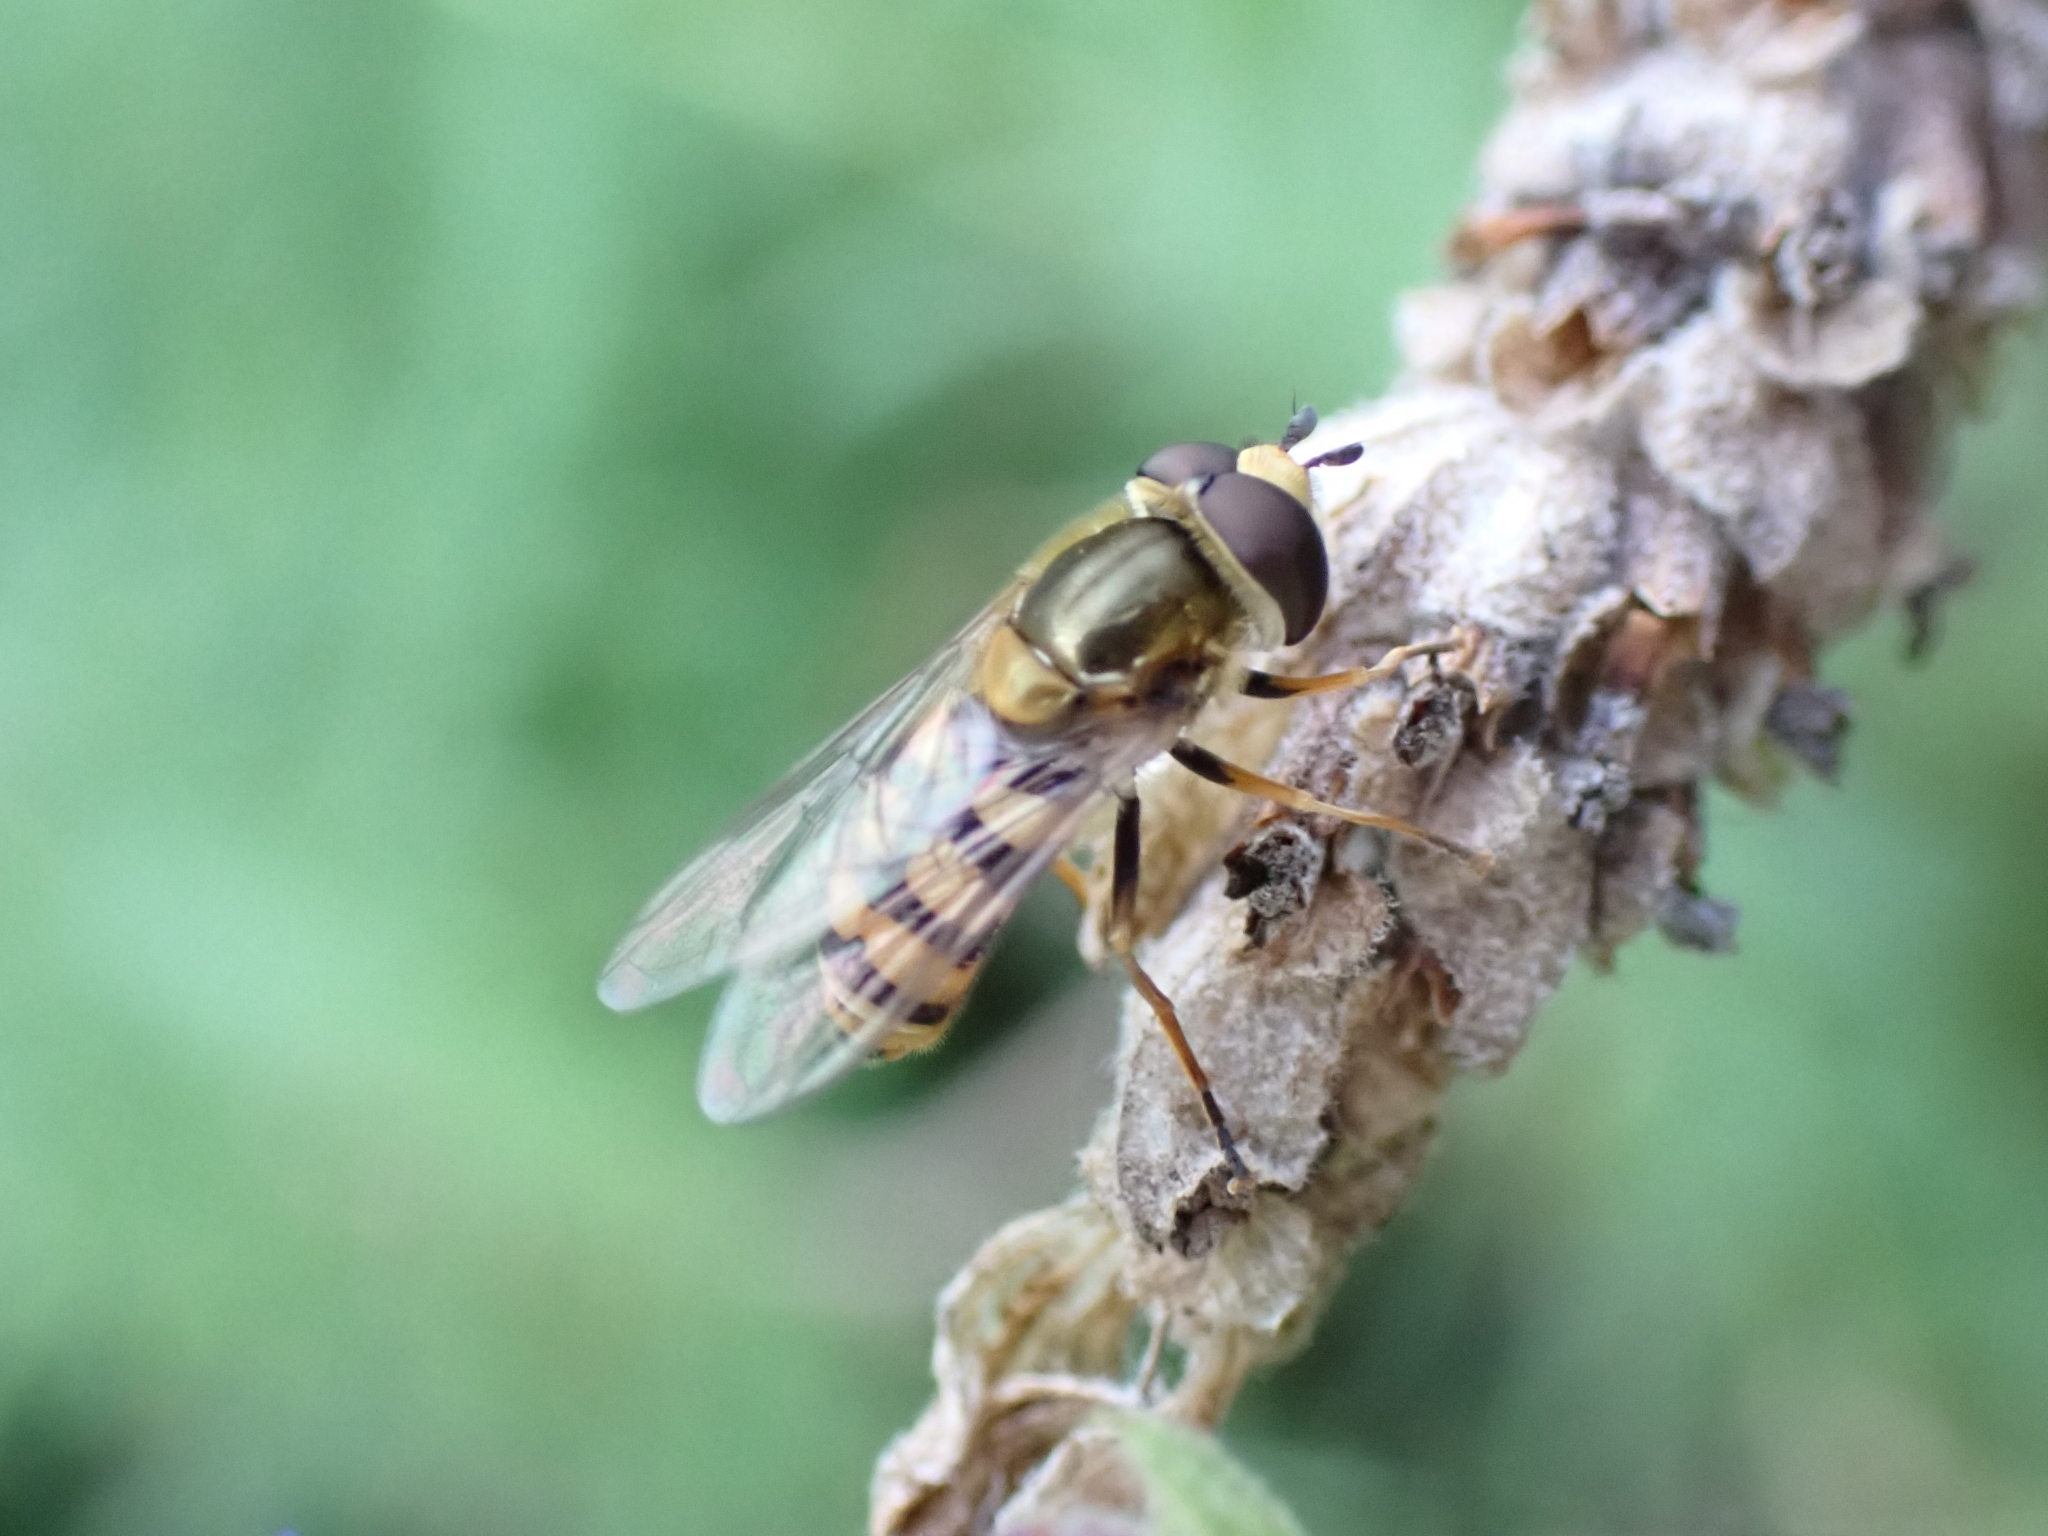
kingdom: Animalia
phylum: Arthropoda
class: Insecta
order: Diptera
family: Syrphidae
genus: Eupeodes
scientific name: Eupeodes corollae
